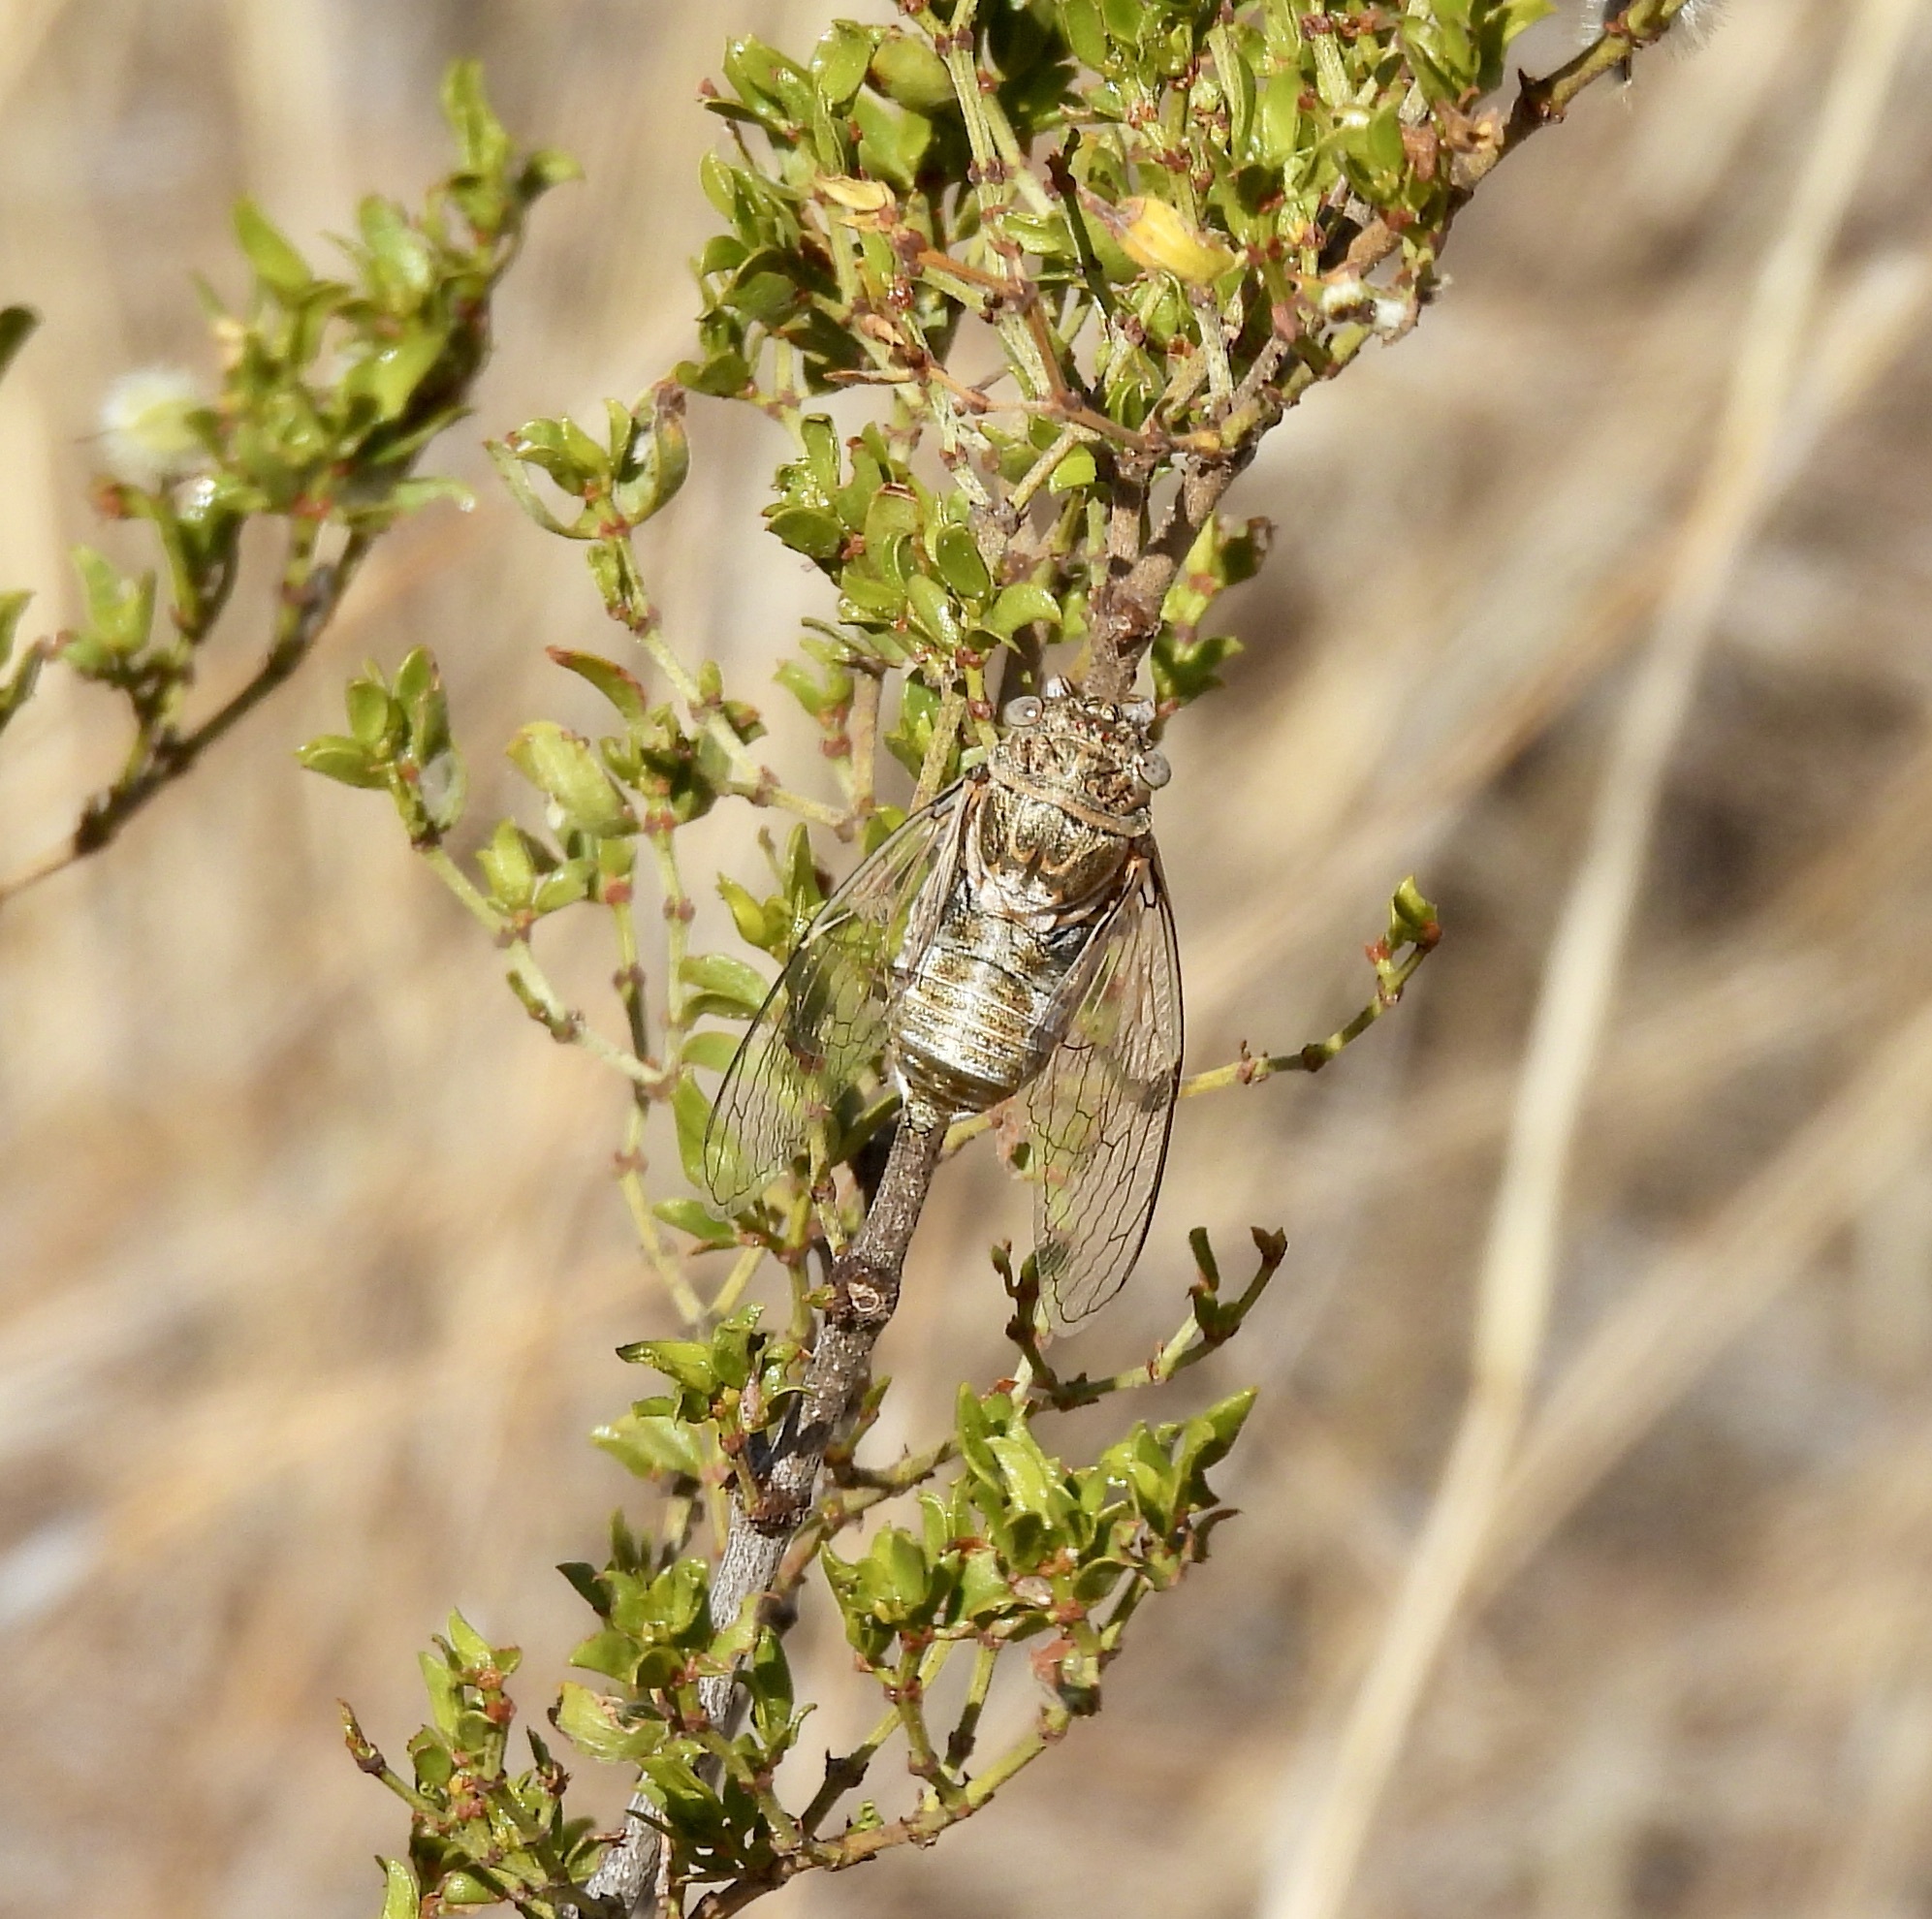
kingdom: Animalia
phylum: Arthropoda
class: Insecta
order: Hemiptera
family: Cicadidae
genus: Diceroprocta
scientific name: Diceroprocta eugraphica
